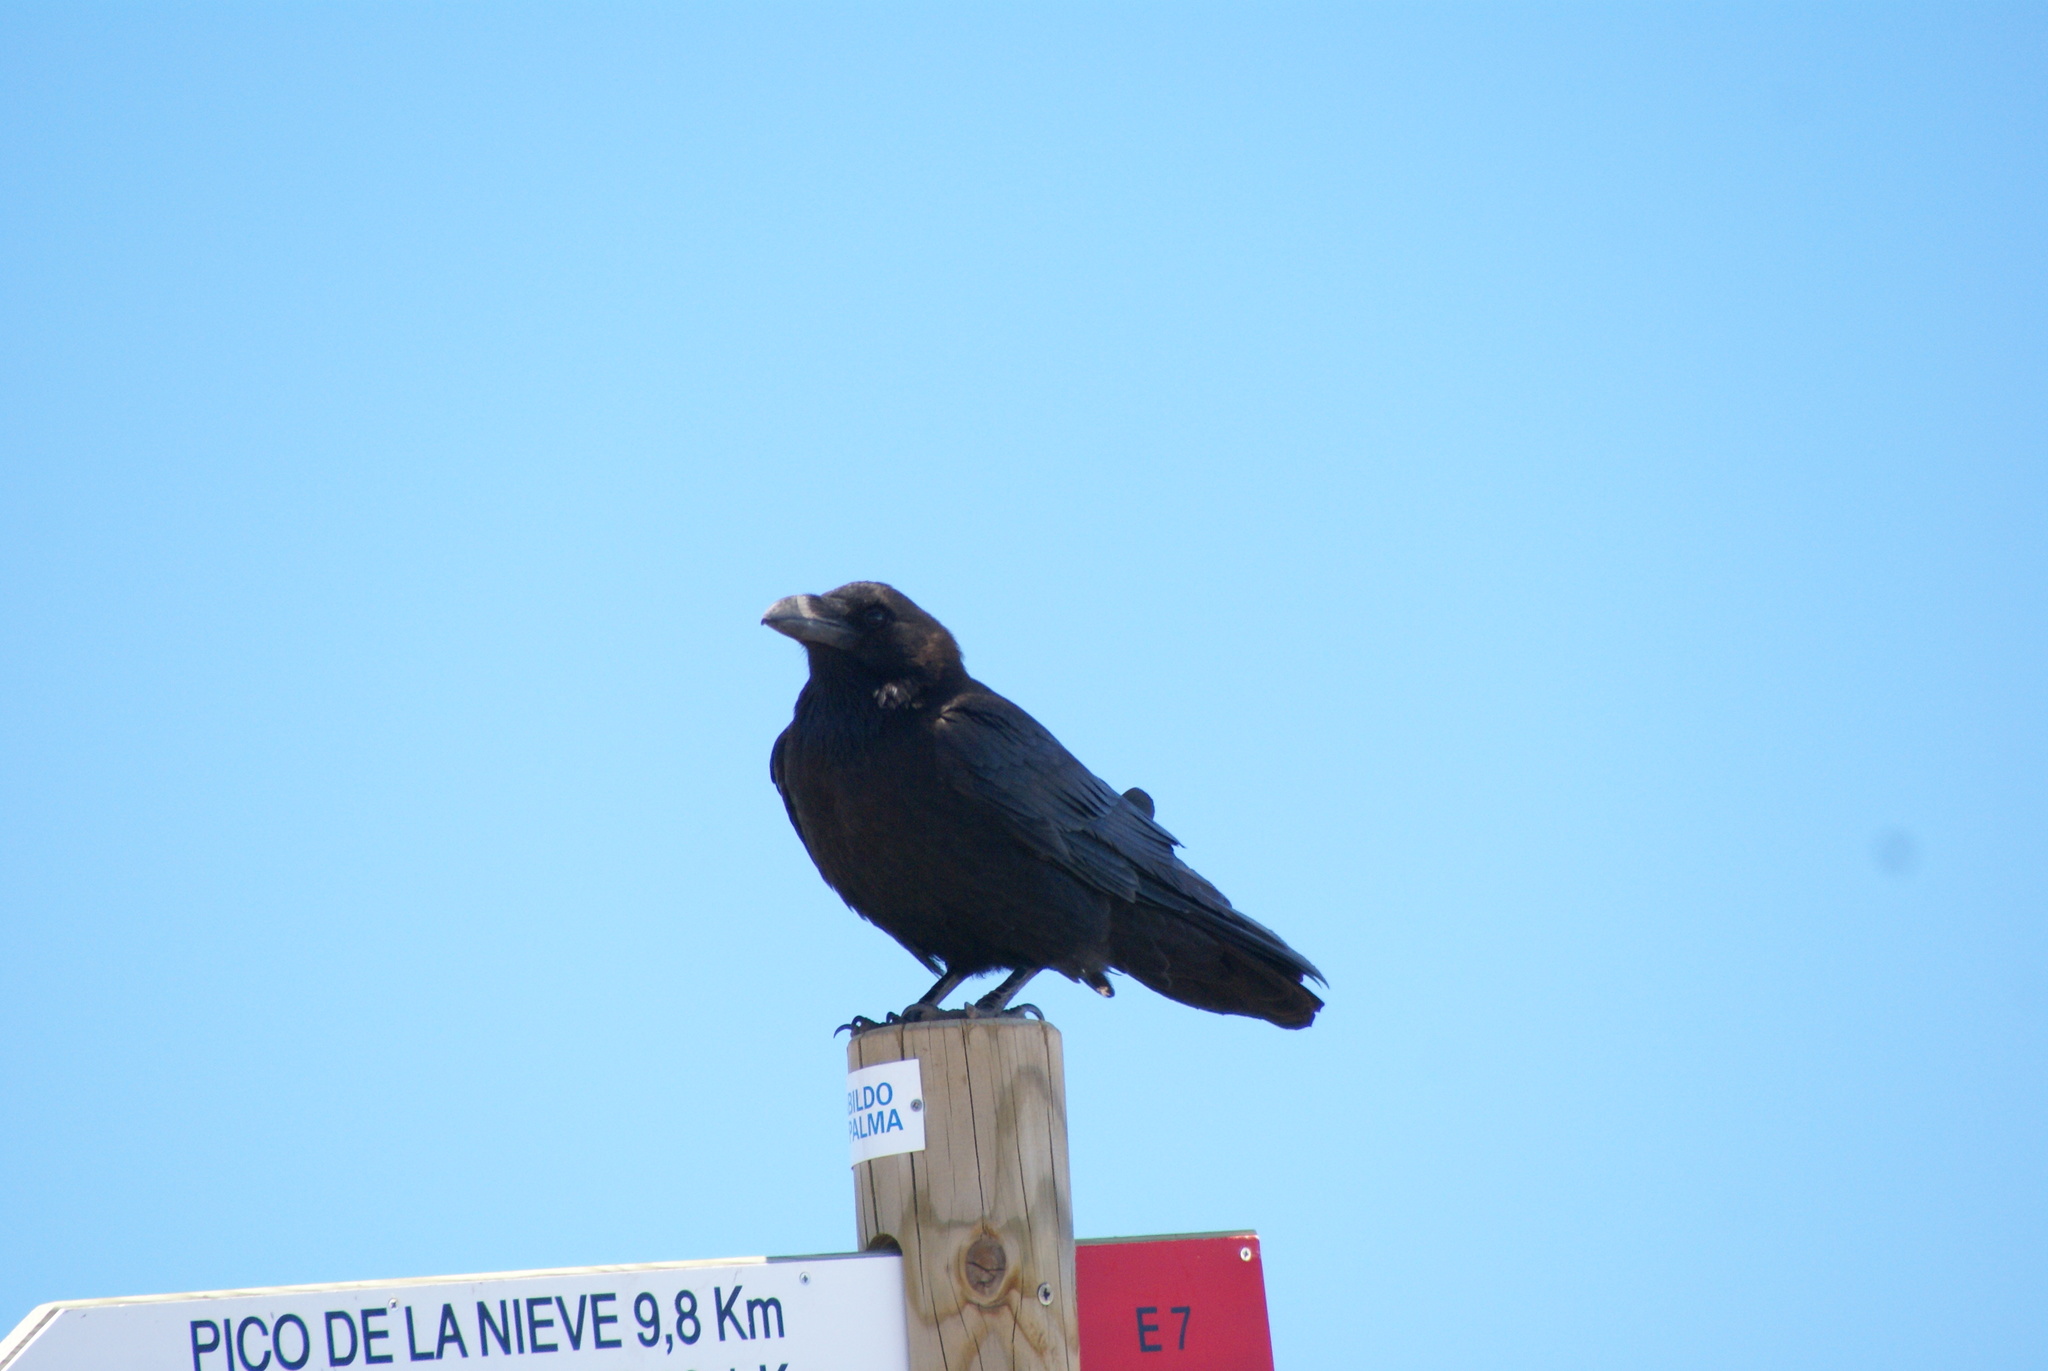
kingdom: Animalia
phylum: Chordata
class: Aves
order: Passeriformes
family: Corvidae
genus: Corvus
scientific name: Corvus corax
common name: Common raven
